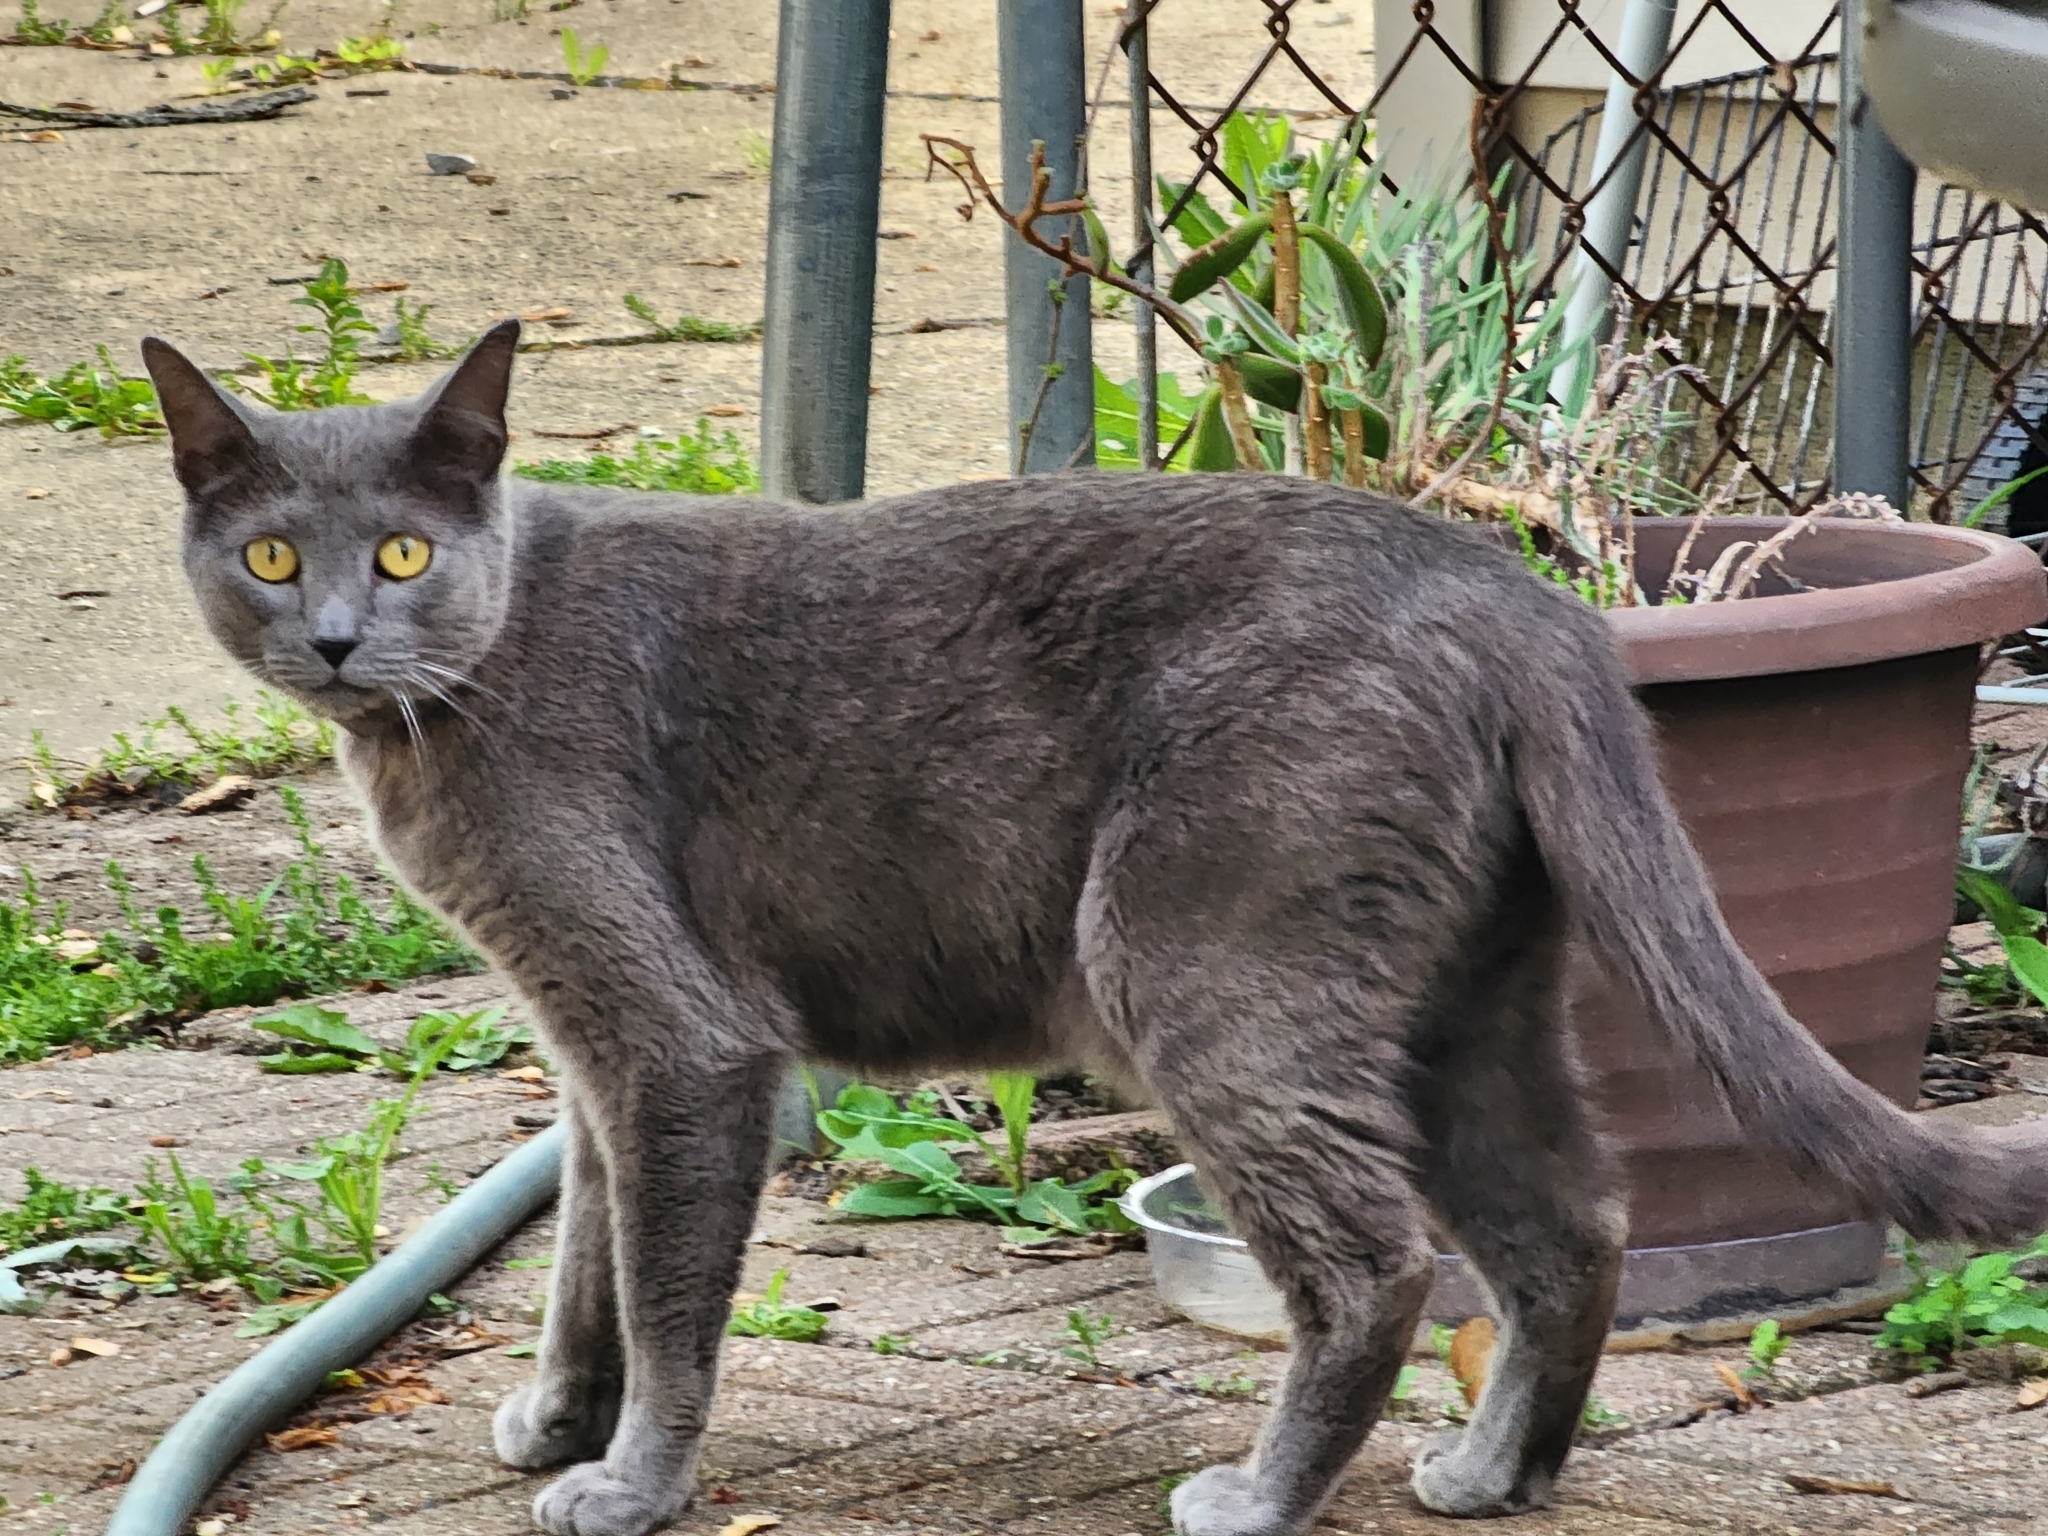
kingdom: Animalia
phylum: Chordata
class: Mammalia
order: Carnivora
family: Felidae
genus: Felis
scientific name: Felis catus
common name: Domestic cat
